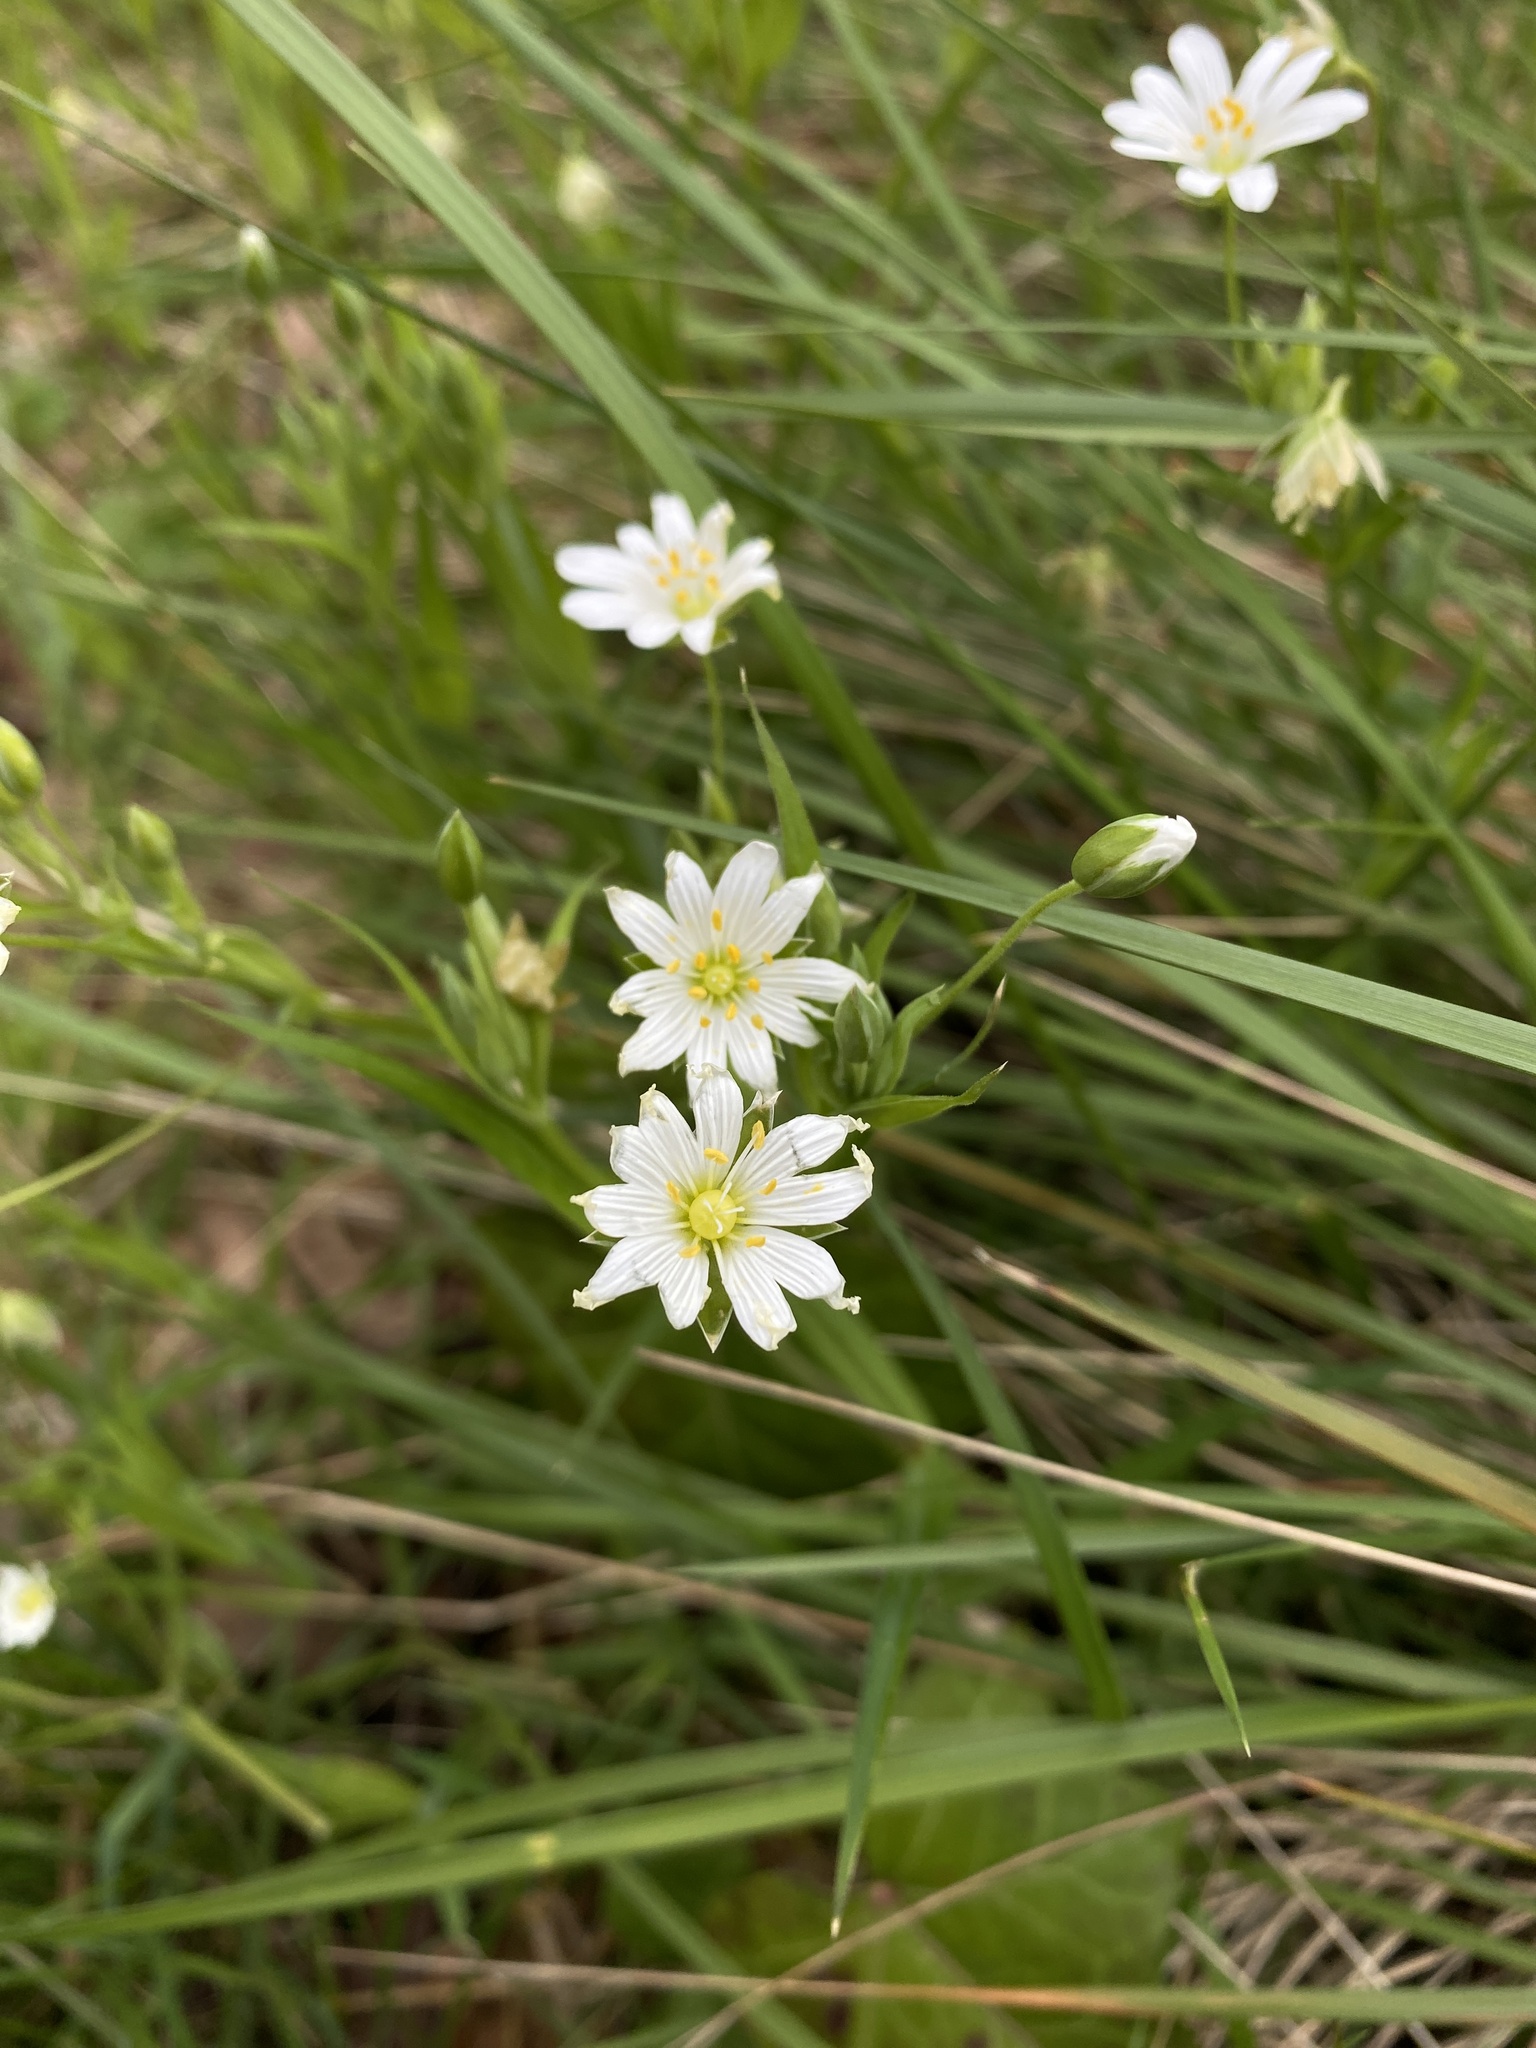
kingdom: Plantae
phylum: Tracheophyta
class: Magnoliopsida
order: Caryophyllales
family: Caryophyllaceae
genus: Rabelera
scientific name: Rabelera holostea
